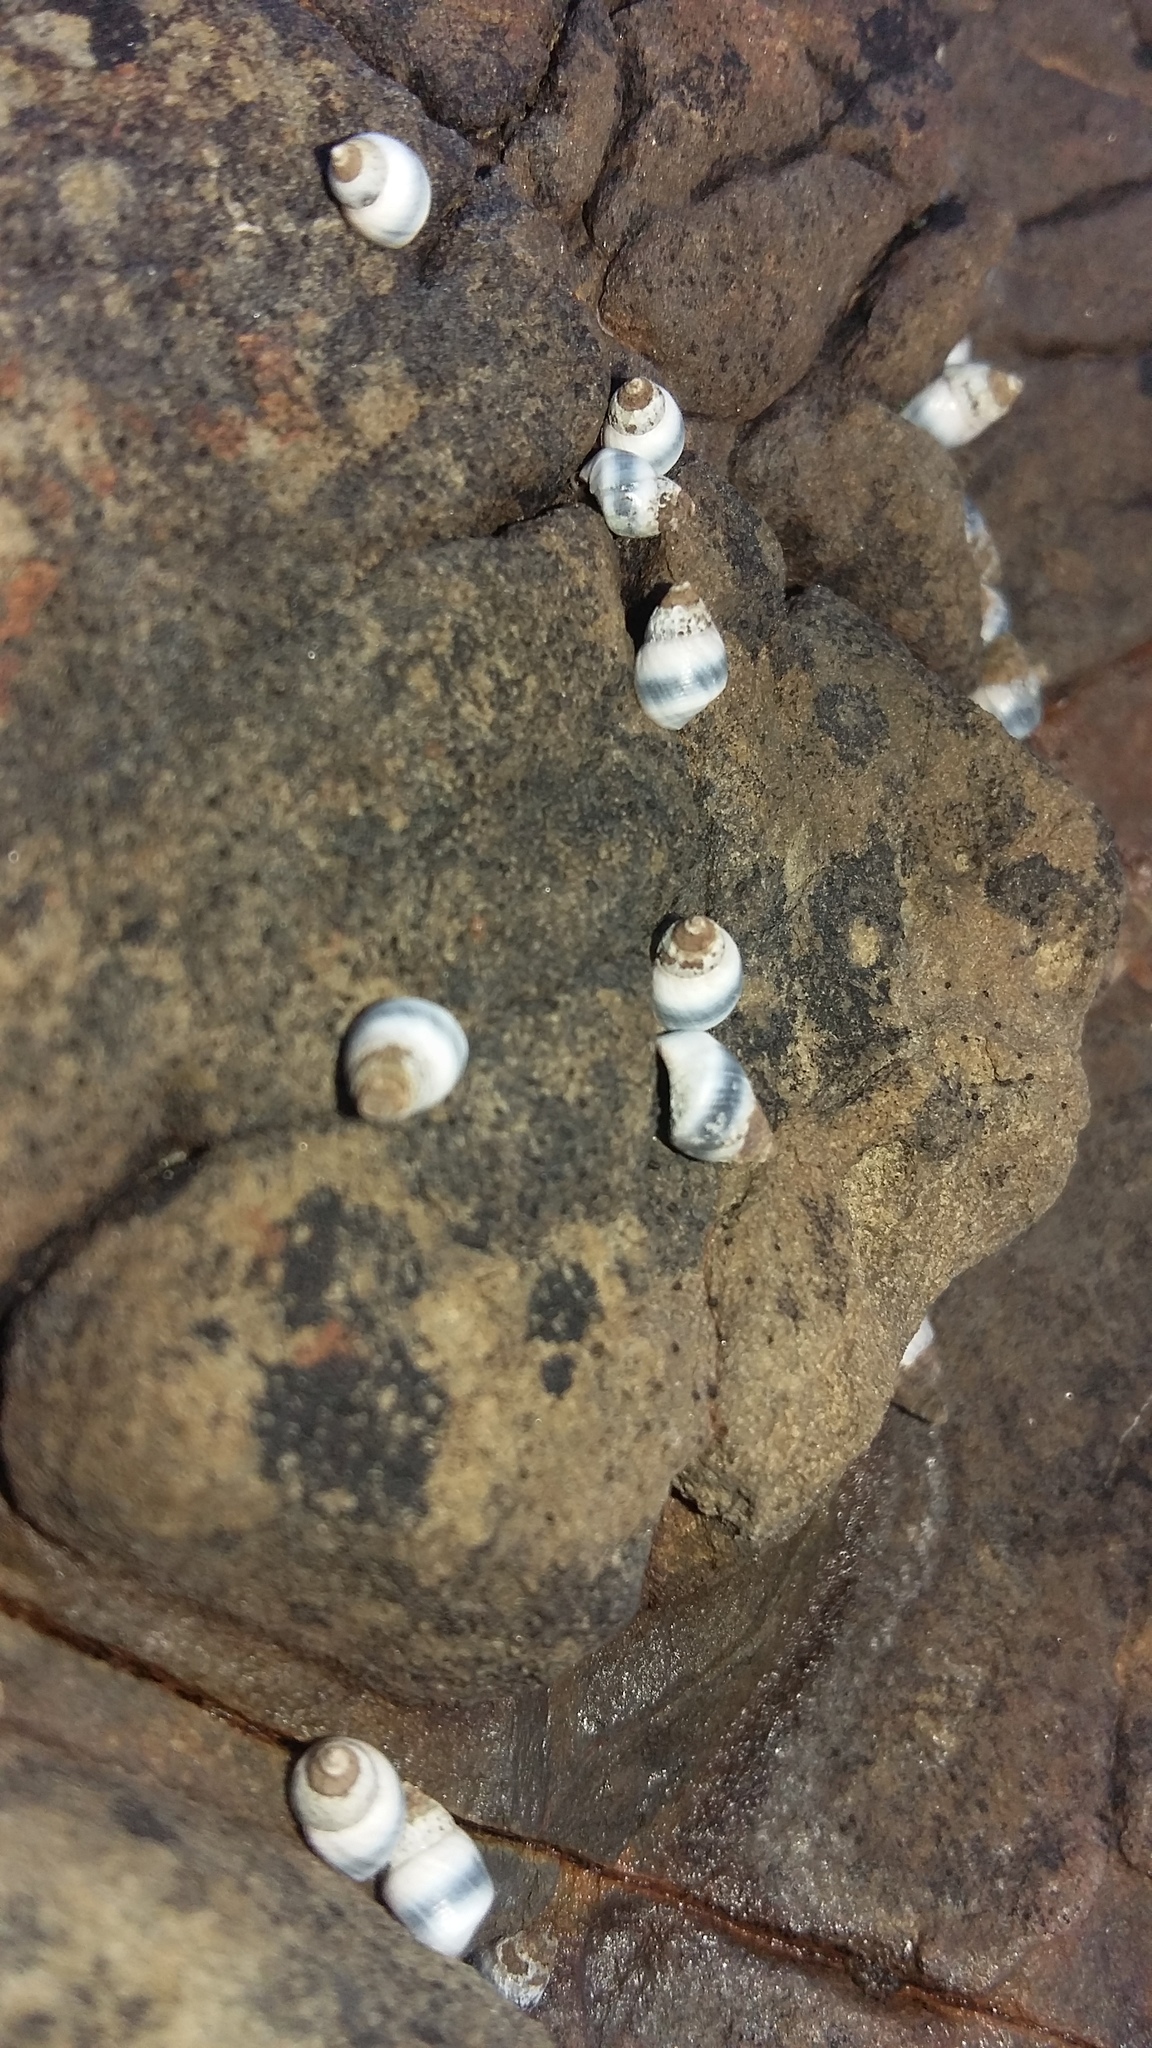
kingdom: Animalia
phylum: Mollusca
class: Gastropoda
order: Littorinimorpha
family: Littorinidae
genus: Austrolittorina
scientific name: Austrolittorina antipodum
